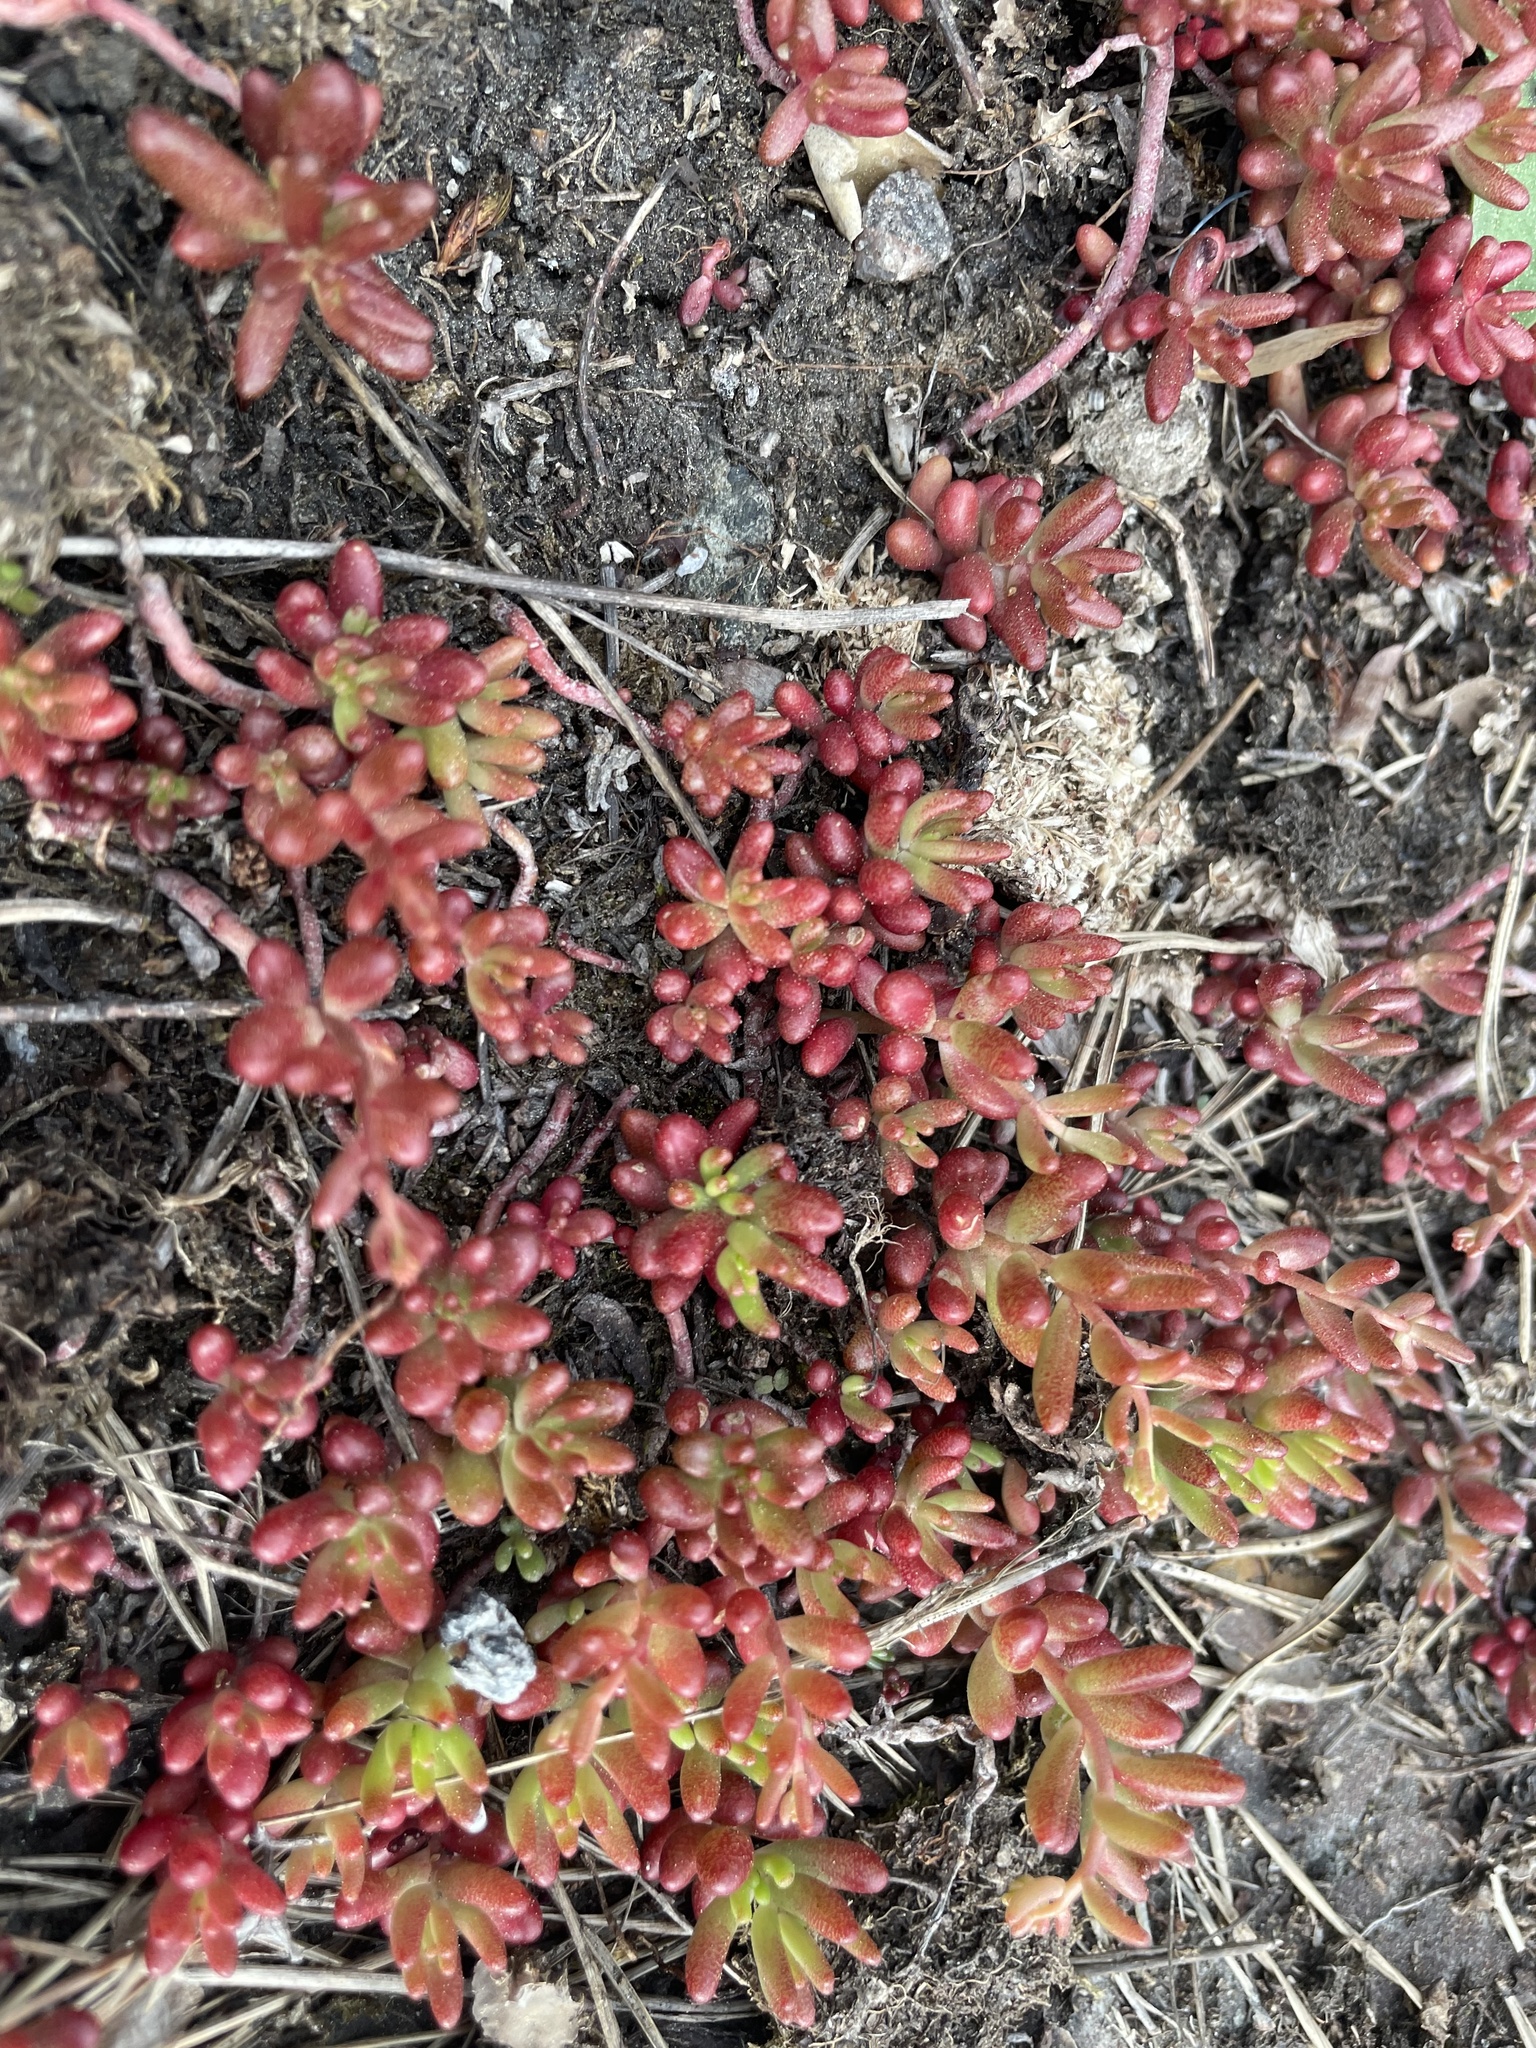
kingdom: Plantae
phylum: Tracheophyta
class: Magnoliopsida
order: Saxifragales
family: Crassulaceae
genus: Sedum
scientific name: Sedum album
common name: White stonecrop
